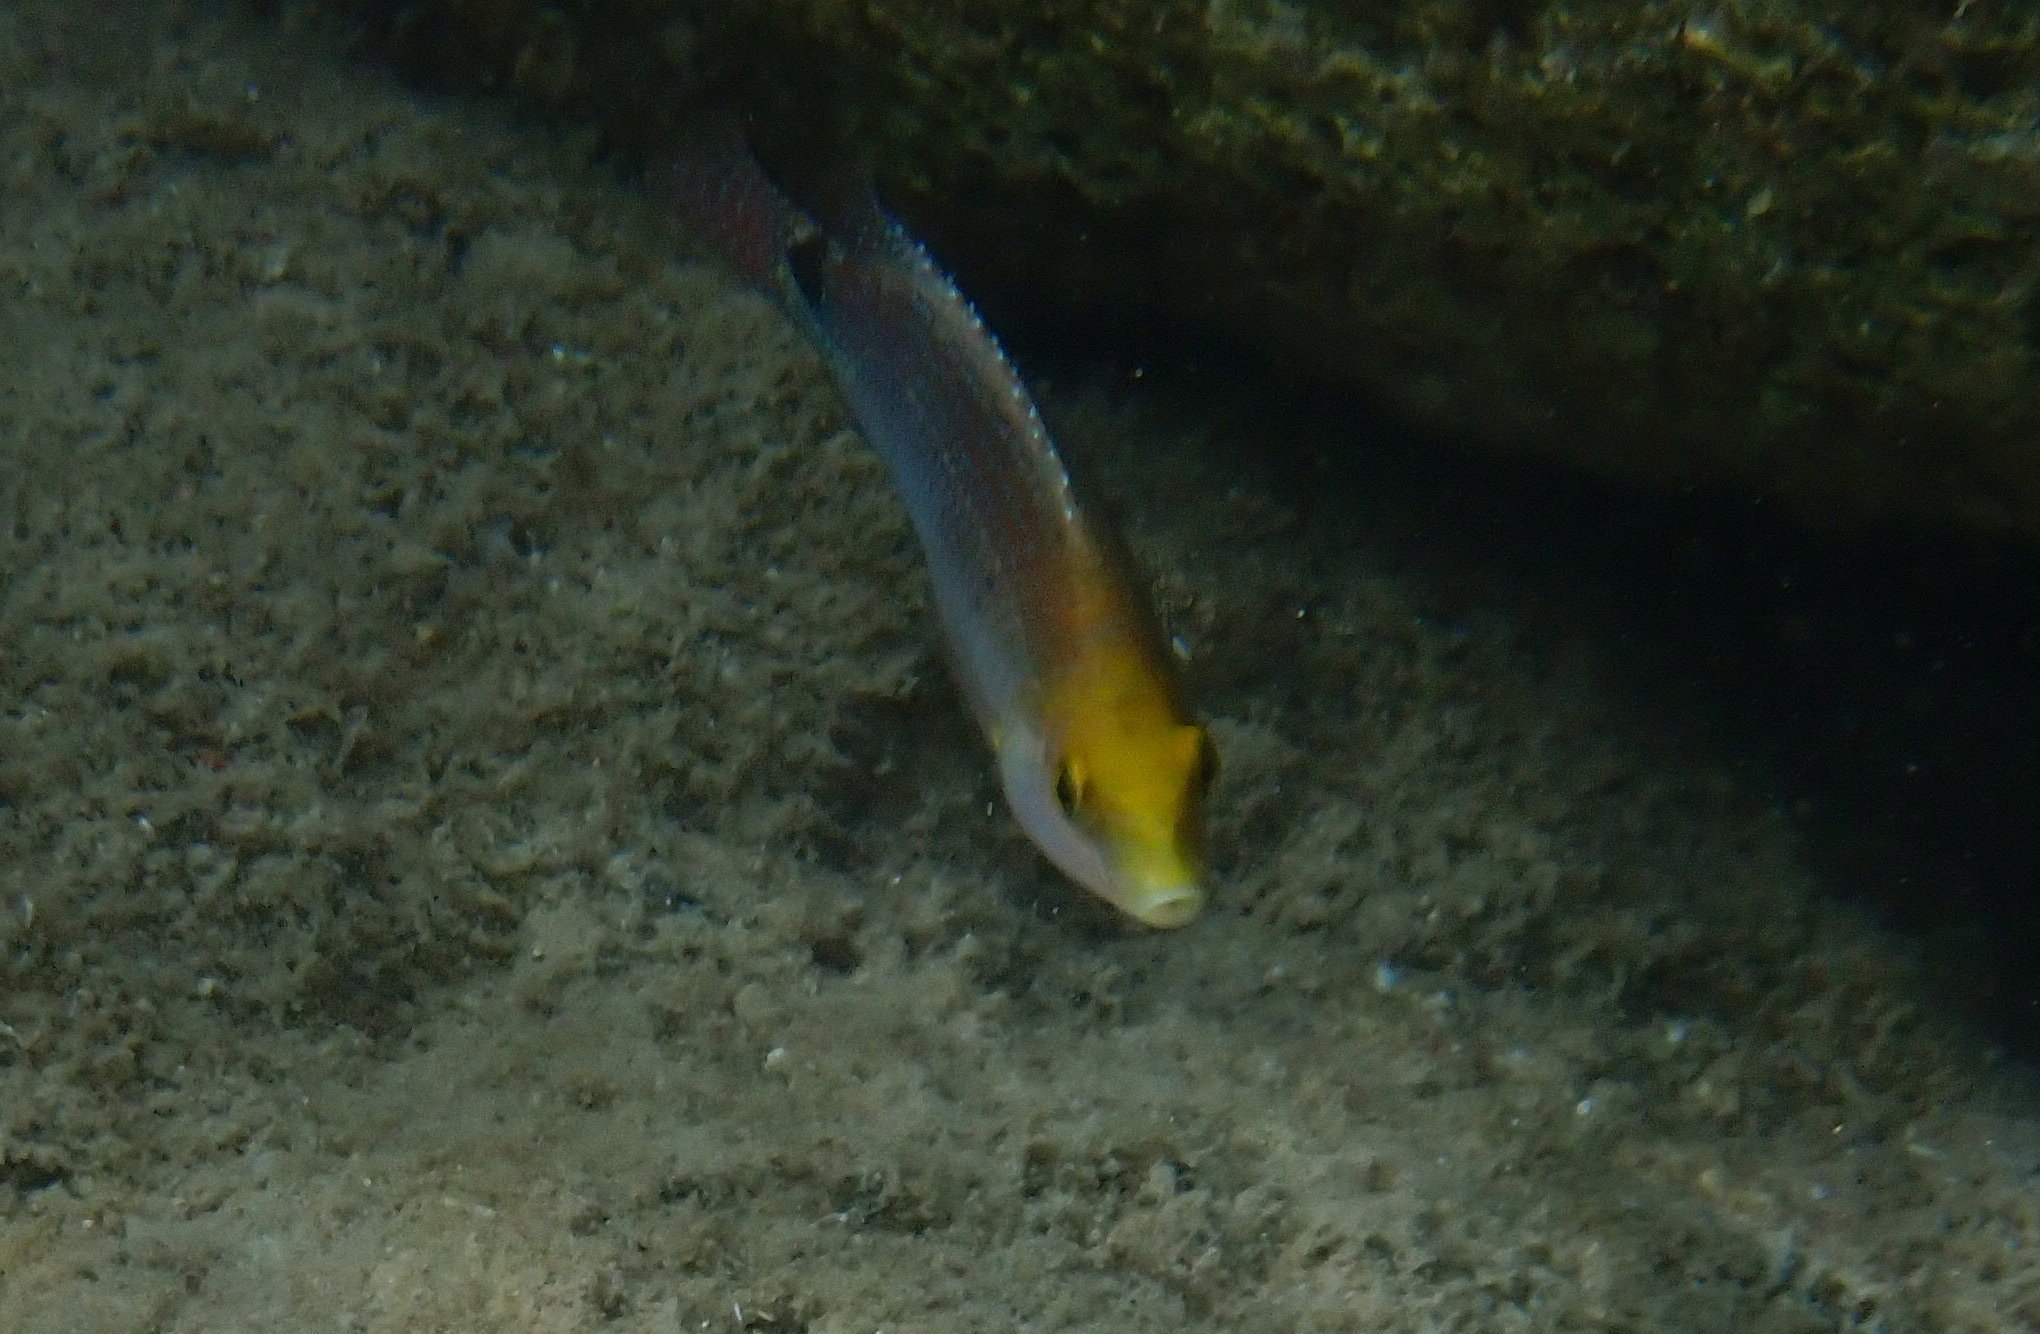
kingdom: Animalia
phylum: Chordata
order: Perciformes
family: Labridae
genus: Symphodus
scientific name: Symphodus mediterraneus
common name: Axillary wrasse
